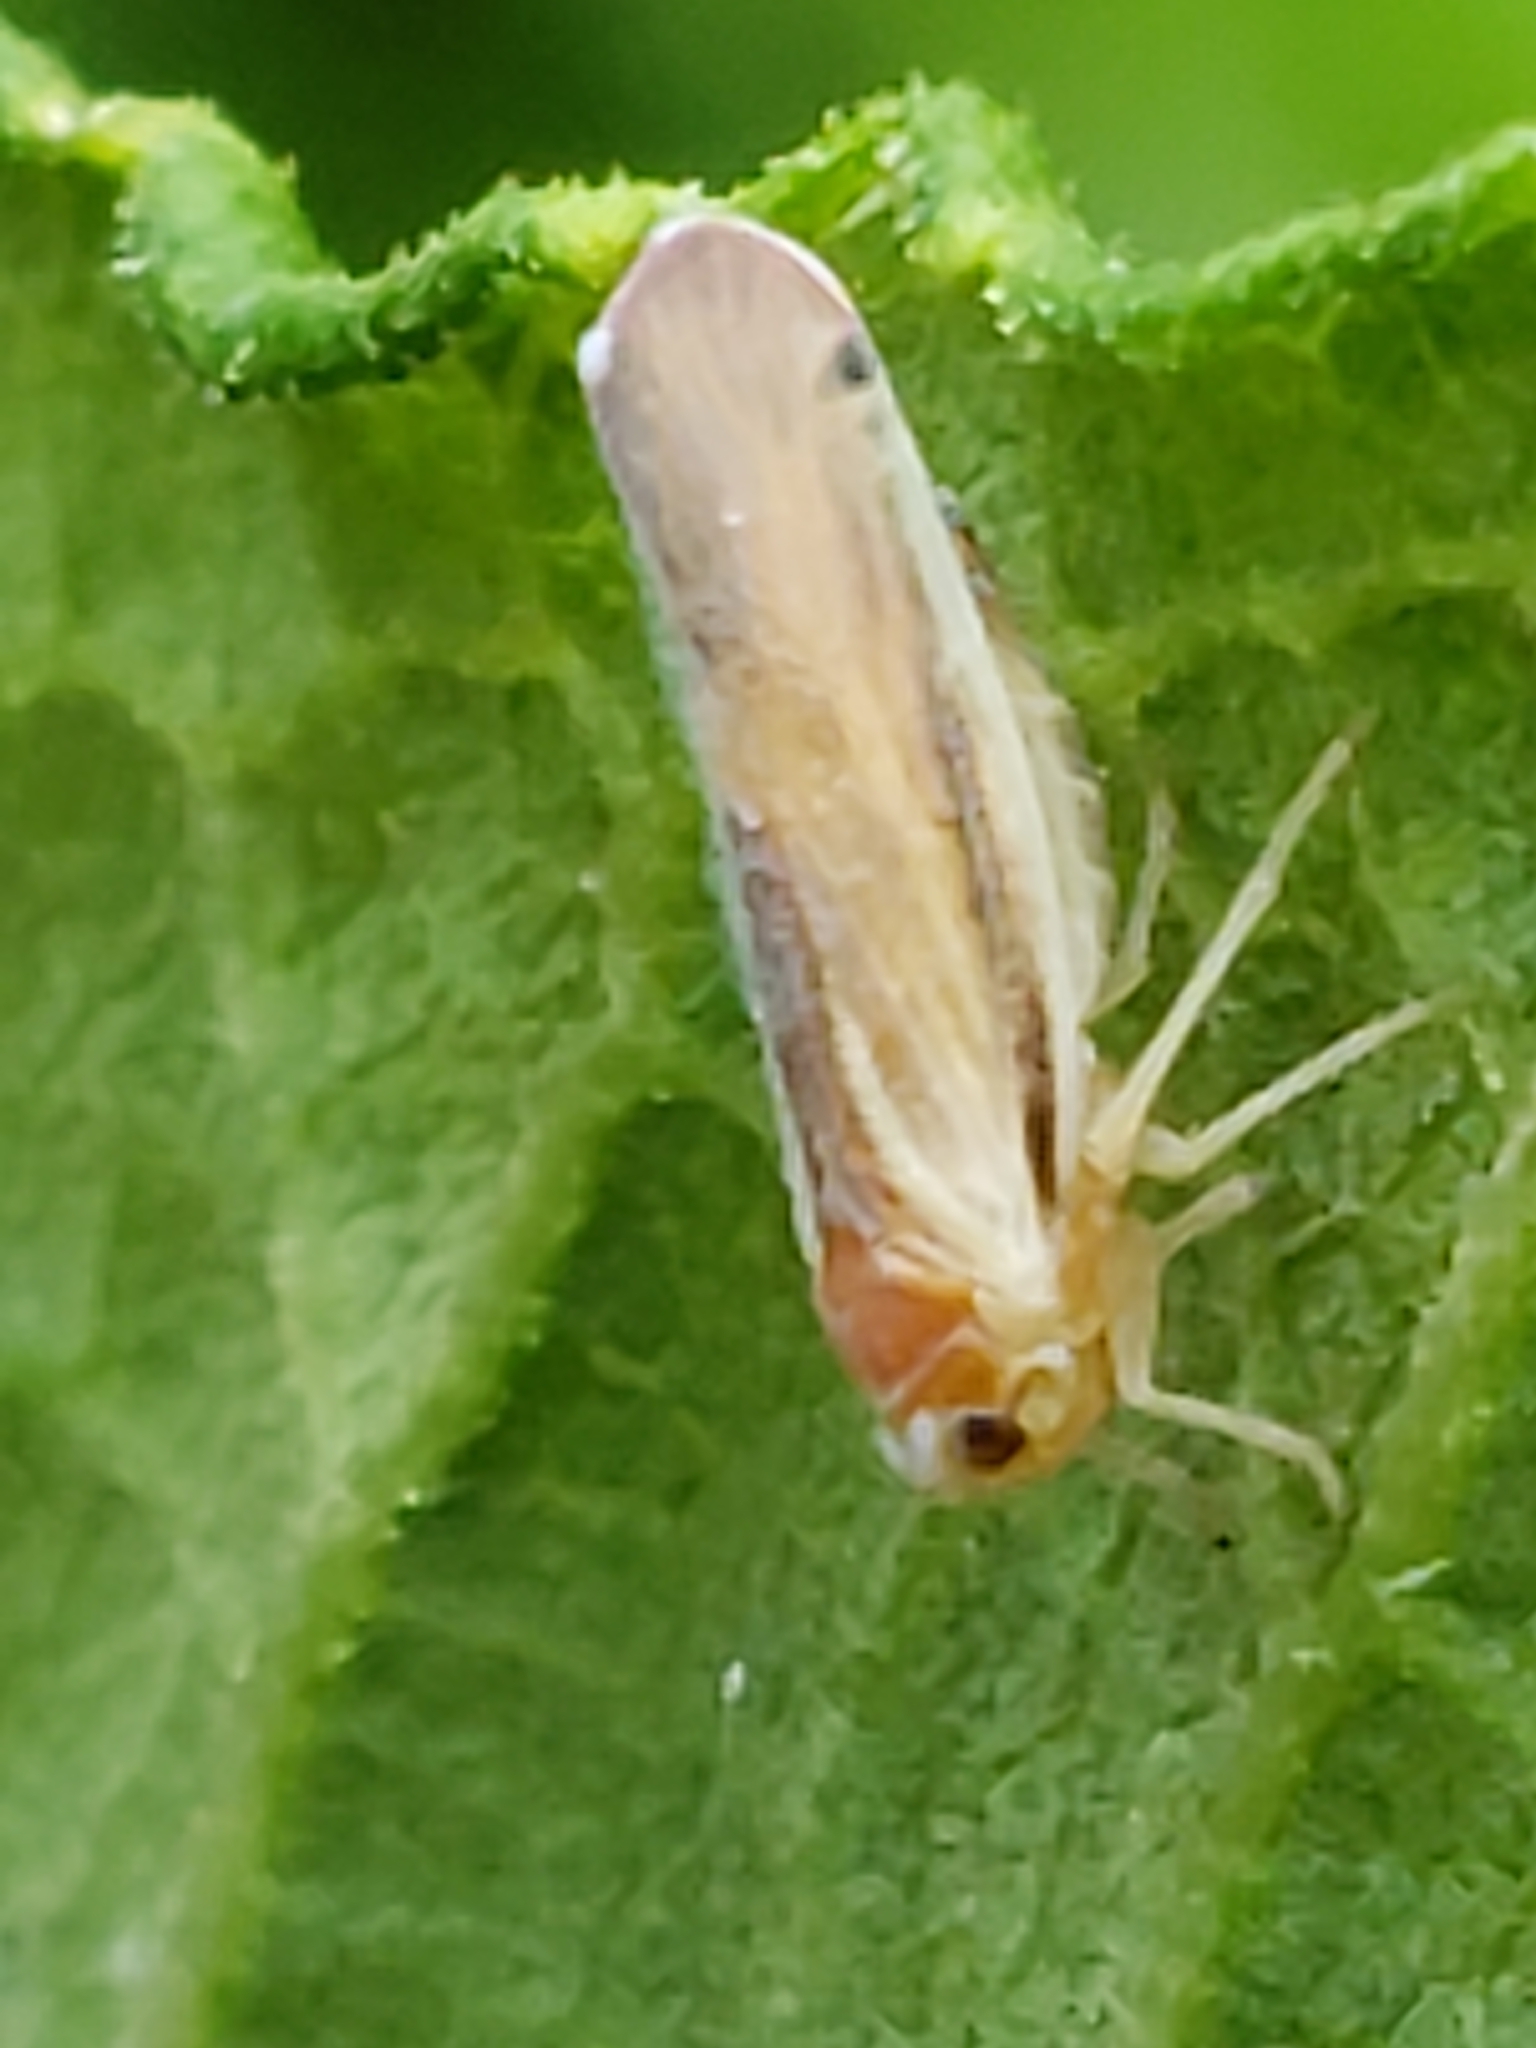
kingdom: Animalia
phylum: Arthropoda
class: Insecta
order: Hemiptera
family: Derbidae
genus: Omolicna
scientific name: Omolicna uhleri
